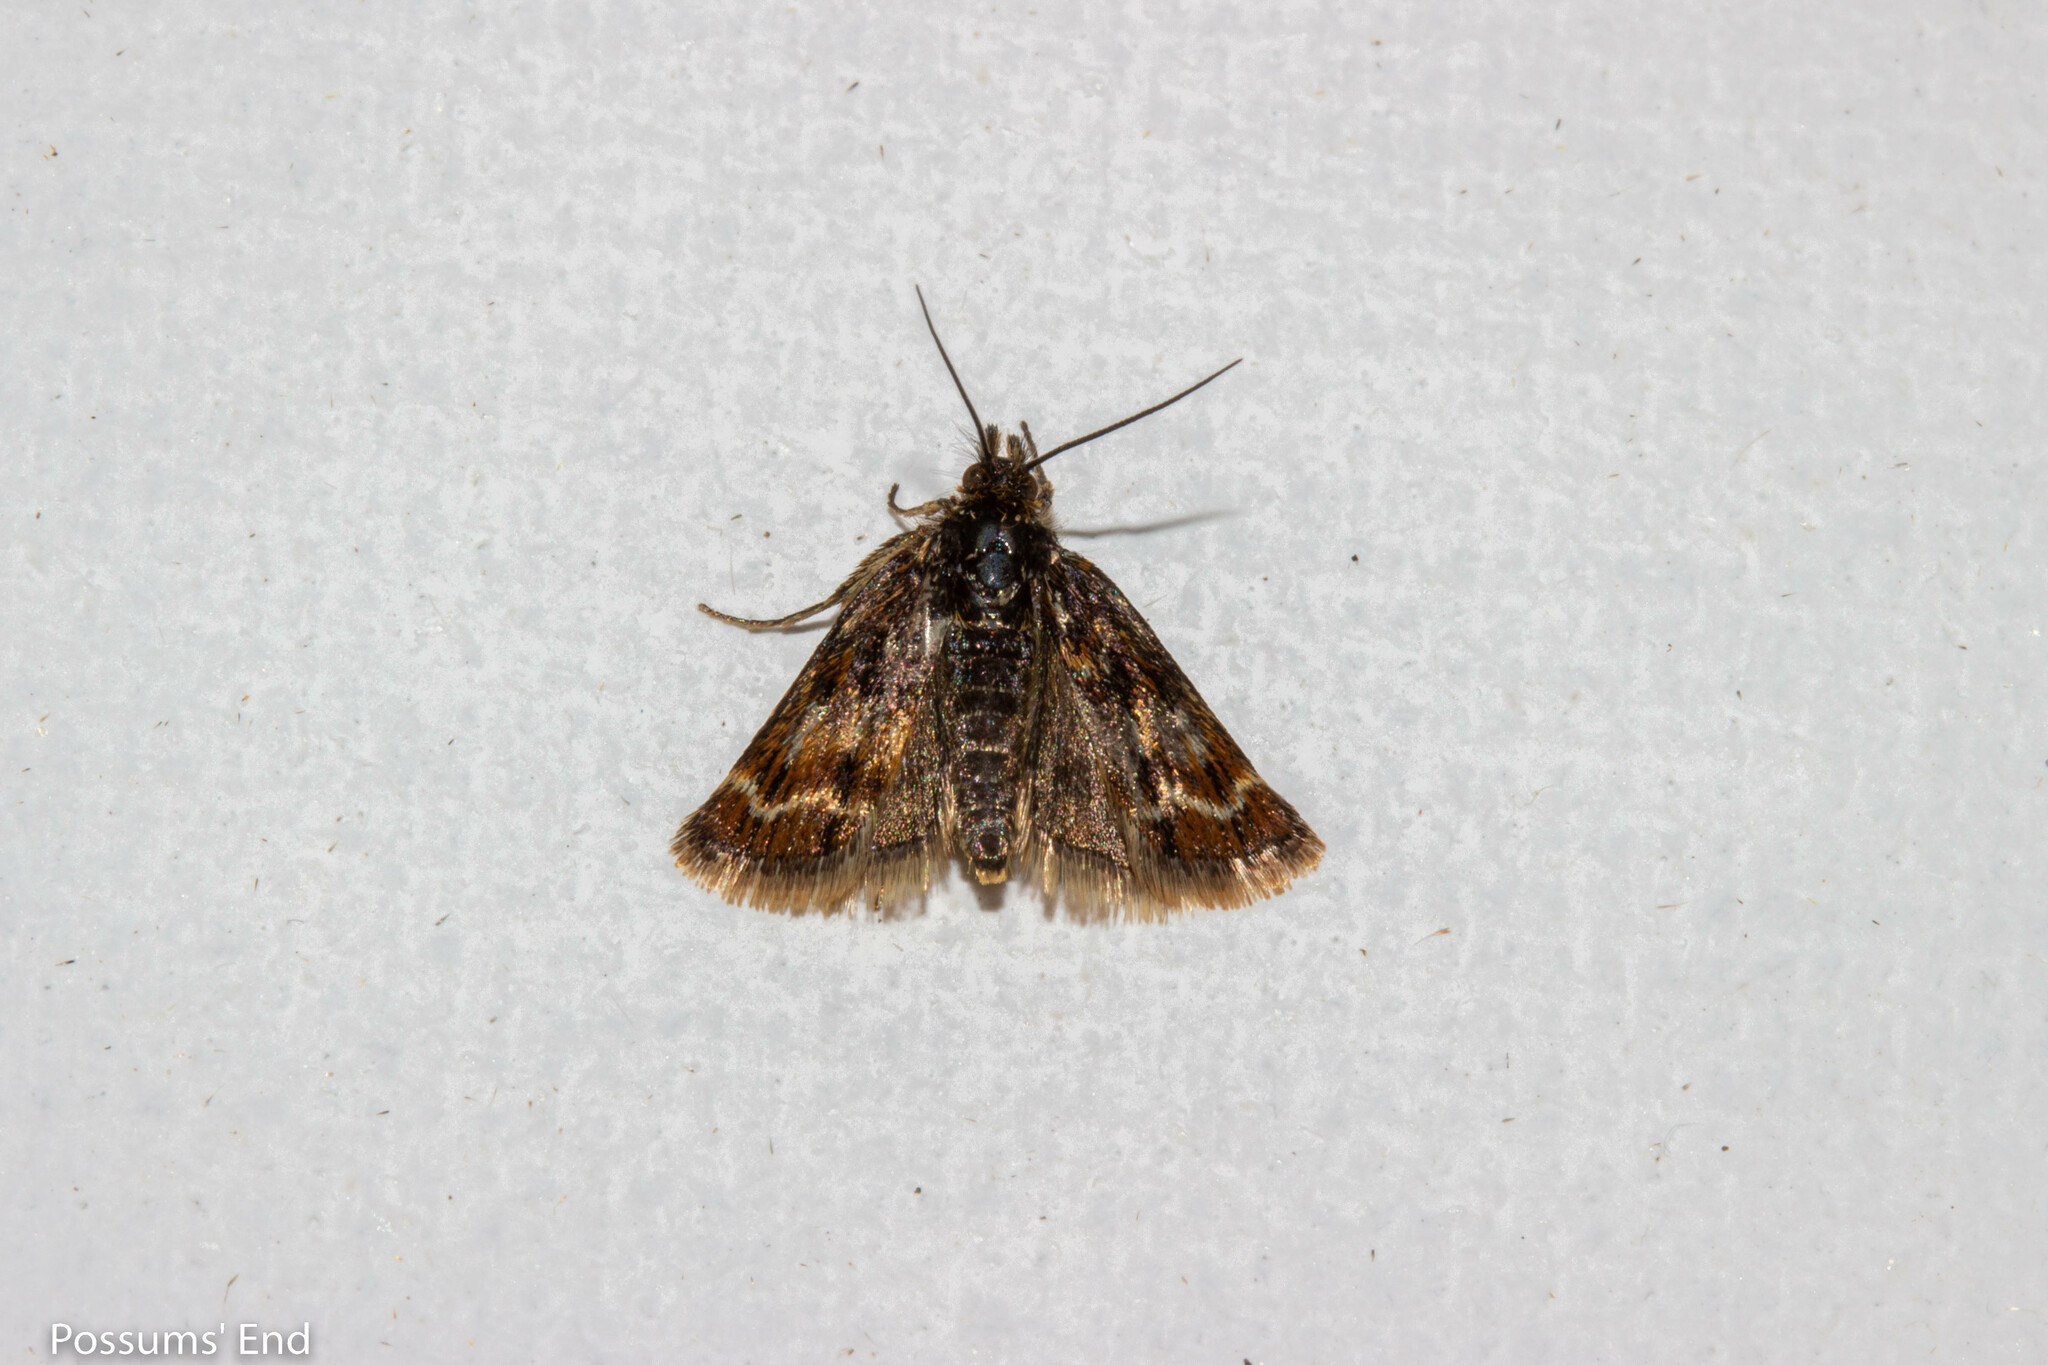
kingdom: Animalia
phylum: Arthropoda
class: Insecta
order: Lepidoptera
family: Crambidae
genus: Orocrambus
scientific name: Orocrambus scoparioides
